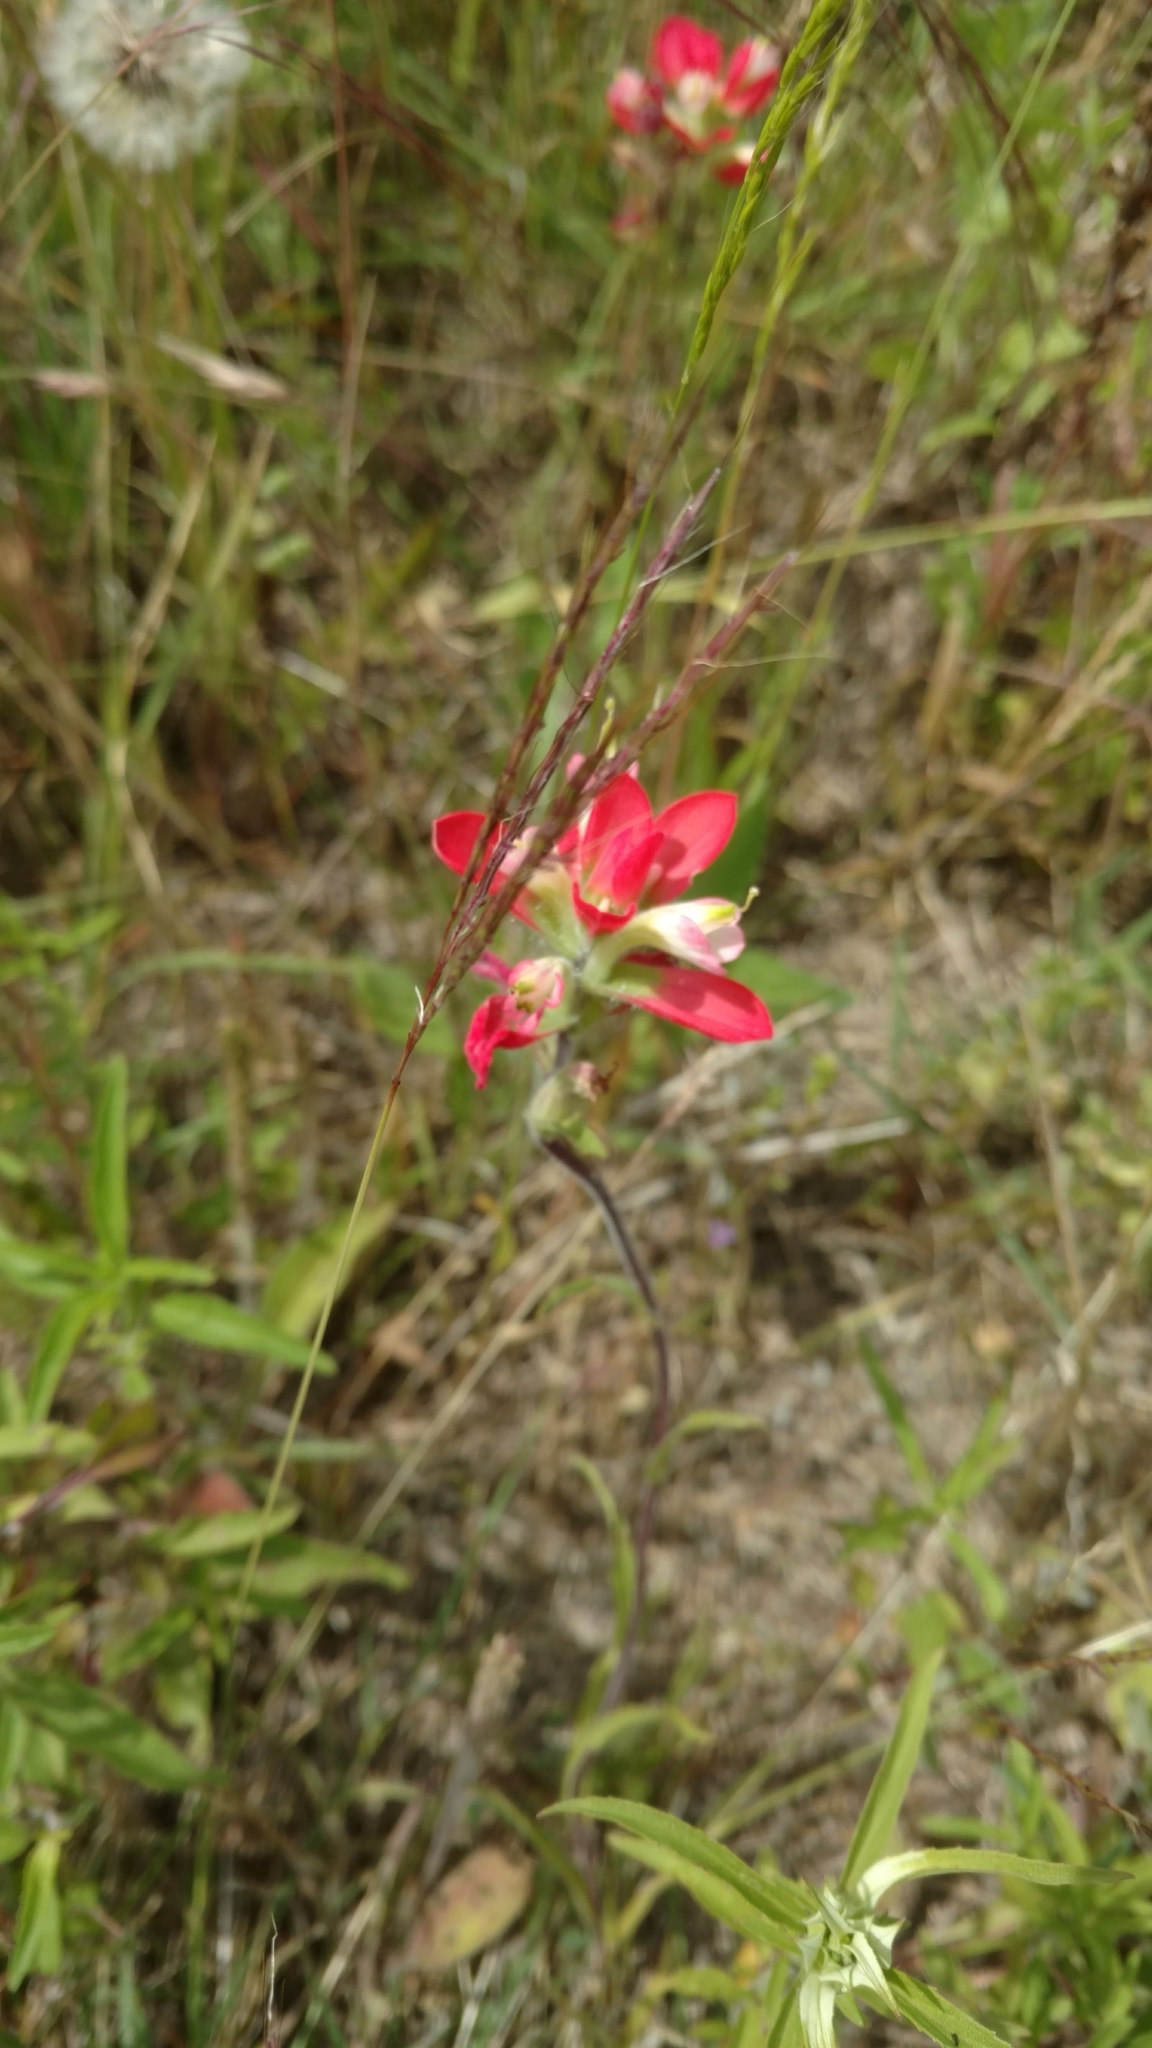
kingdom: Plantae
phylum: Tracheophyta
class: Magnoliopsida
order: Lamiales
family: Orobanchaceae
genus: Castilleja
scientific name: Castilleja indivisa
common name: Texas paintbrush
